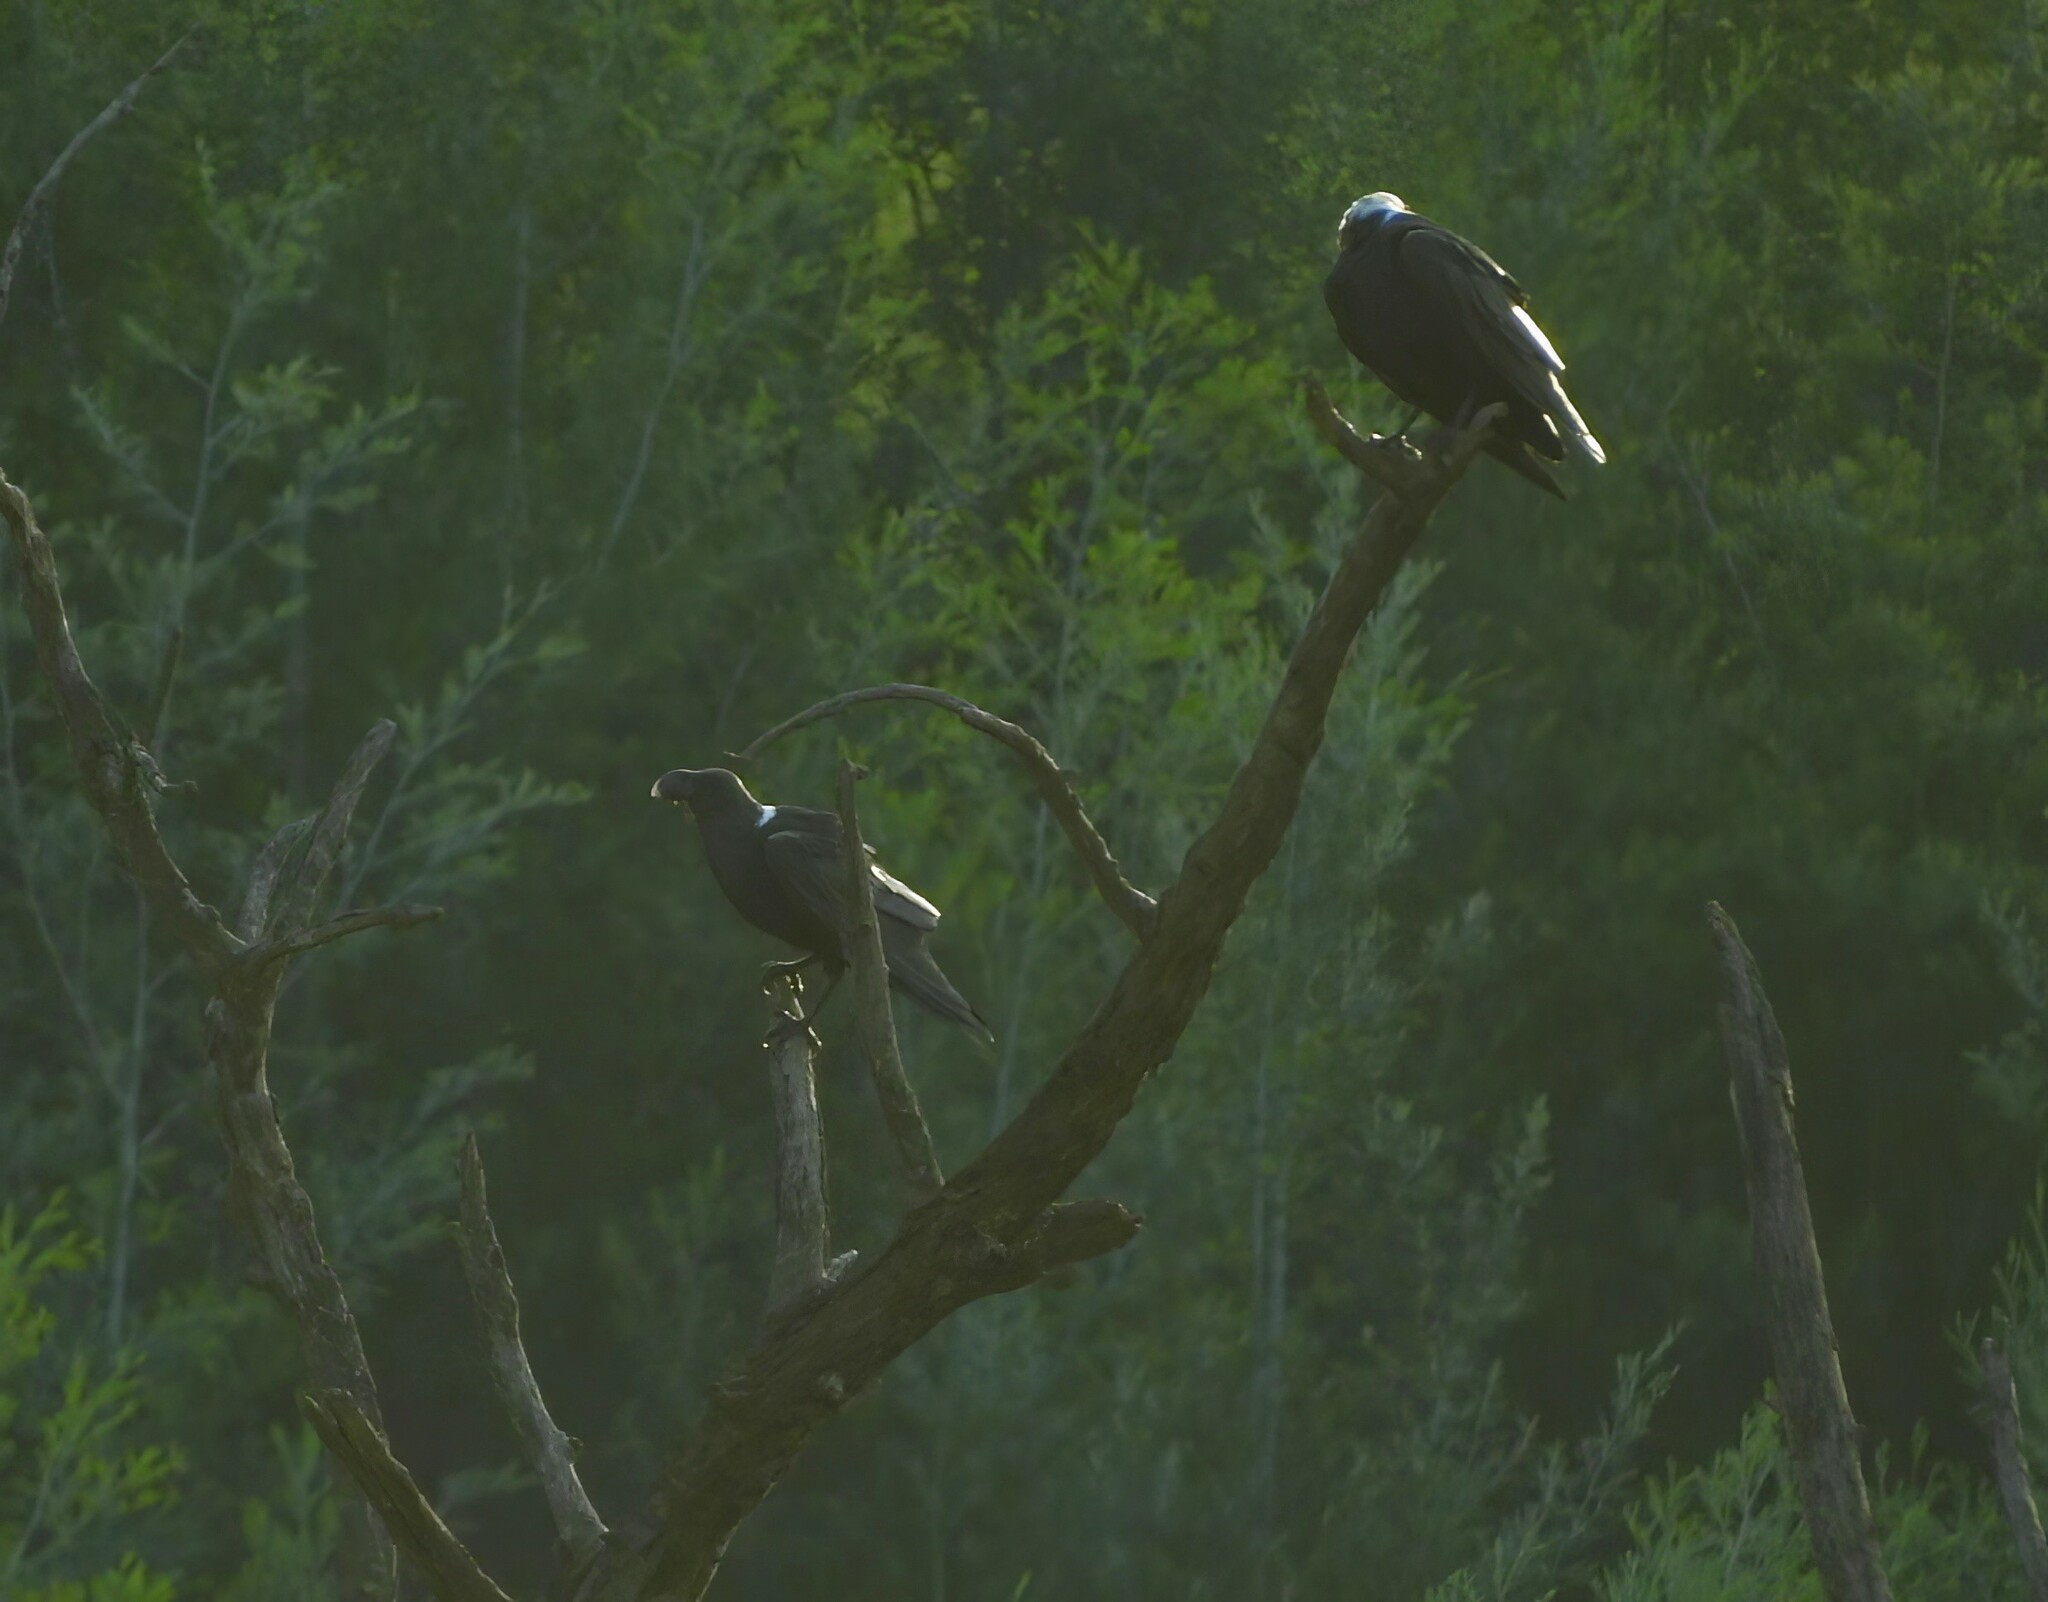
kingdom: Animalia
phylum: Chordata
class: Aves
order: Passeriformes
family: Corvidae
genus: Corvus
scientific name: Corvus albicollis
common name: White-necked raven
